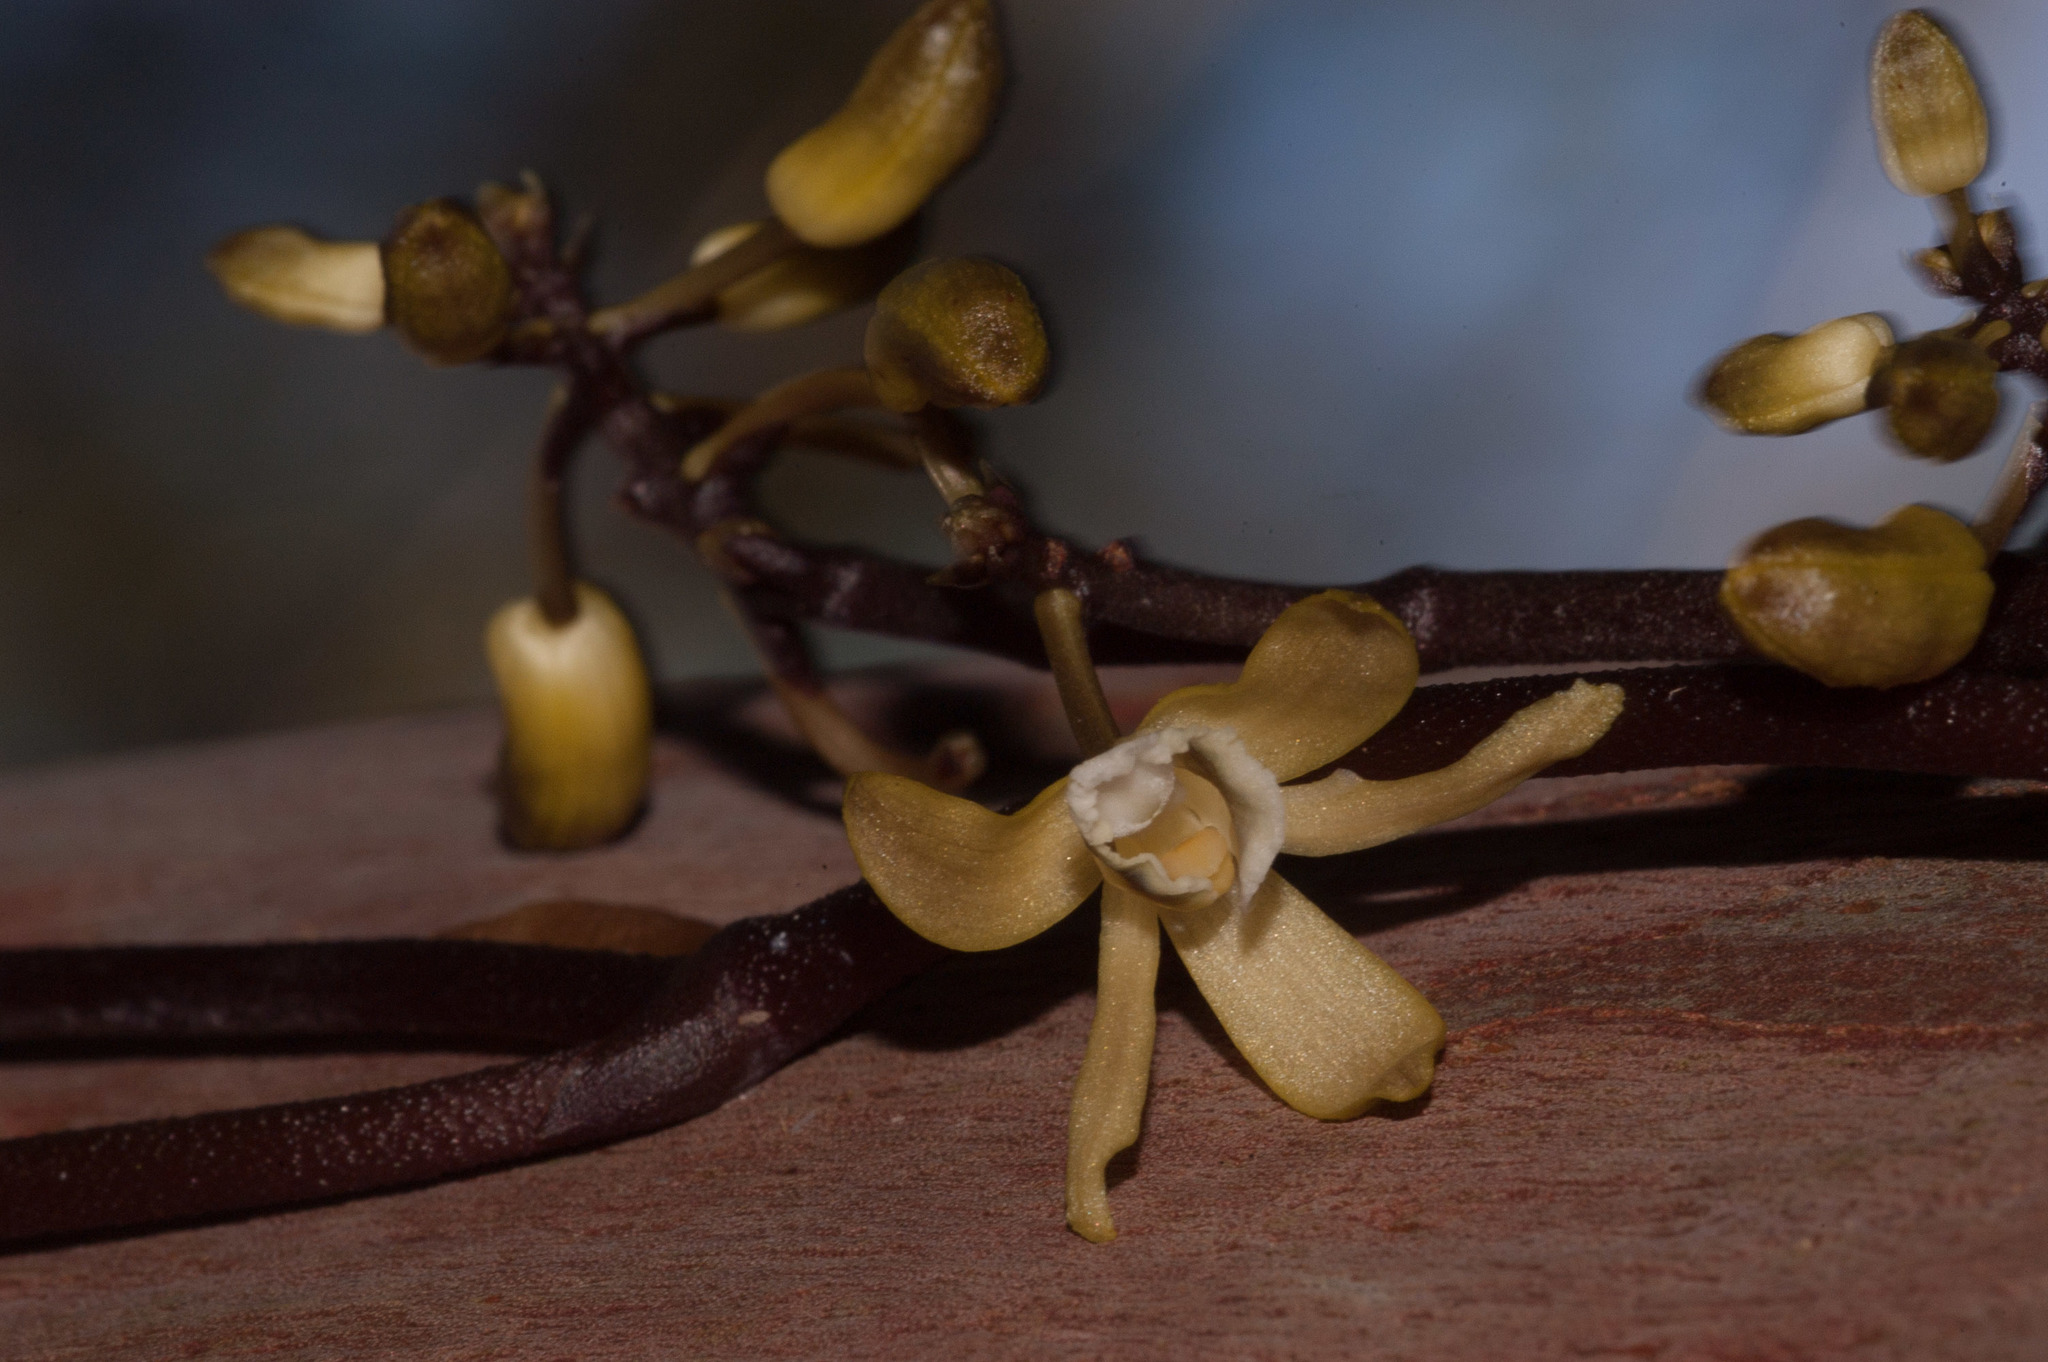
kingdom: Plantae
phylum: Tracheophyta
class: Liliopsida
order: Asparagales
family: Orchidaceae
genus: Erythrorchis
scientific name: Erythrorchis cassythoides
